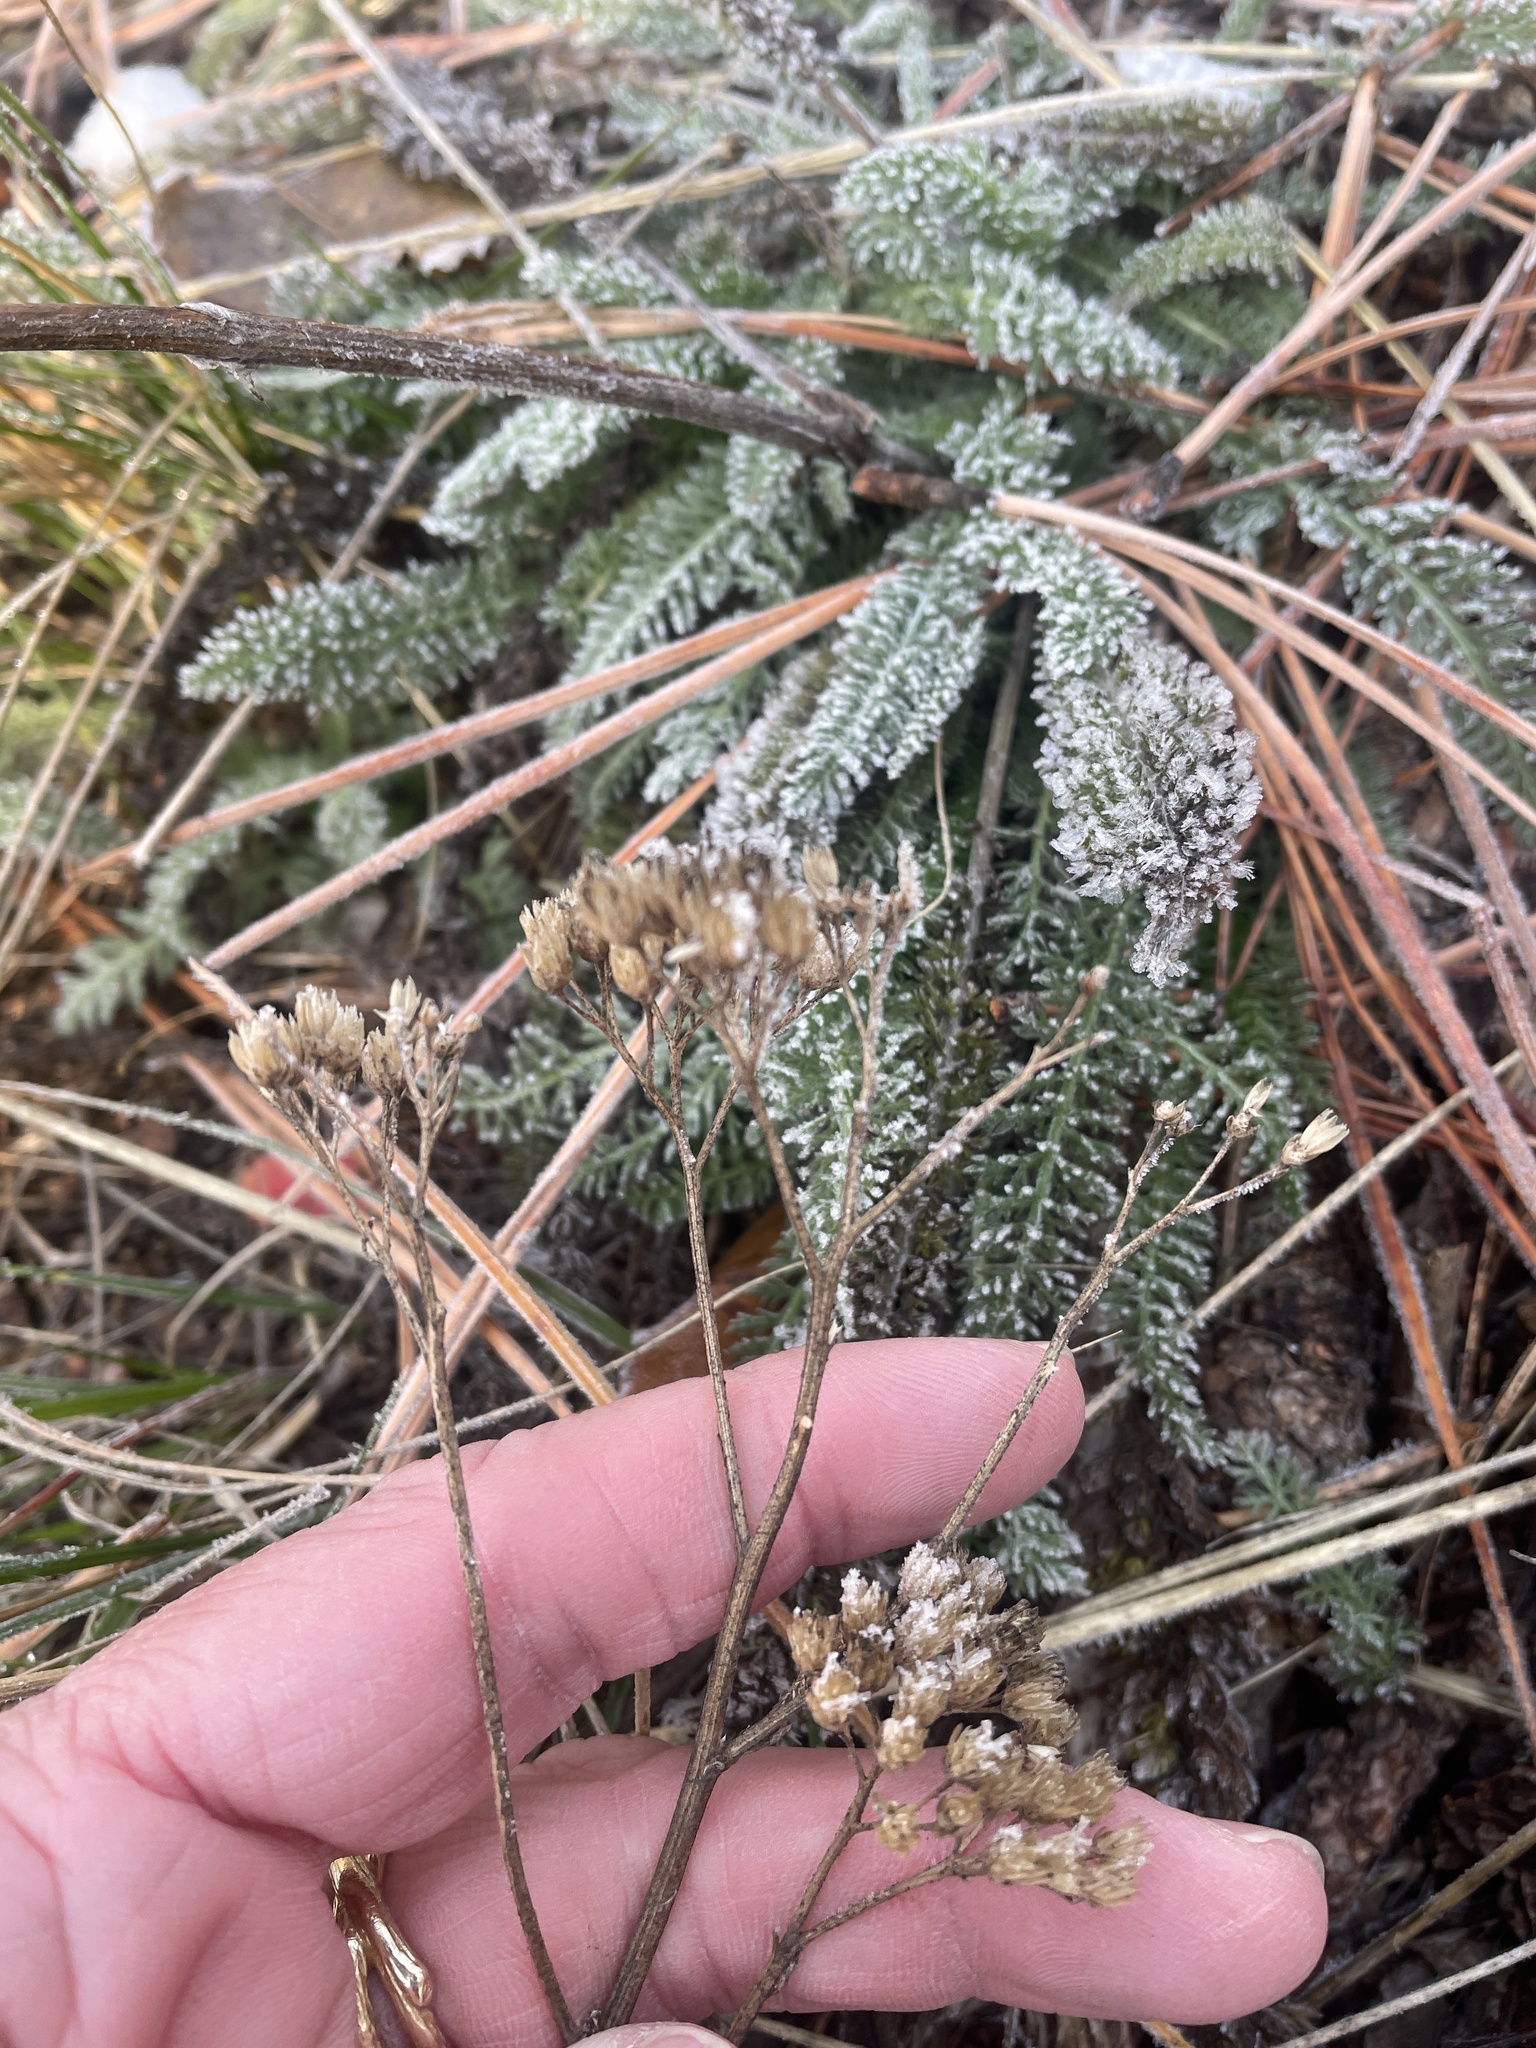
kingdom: Plantae
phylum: Tracheophyta
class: Magnoliopsida
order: Asterales
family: Asteraceae
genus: Achillea
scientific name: Achillea millefolium
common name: Yarrow
